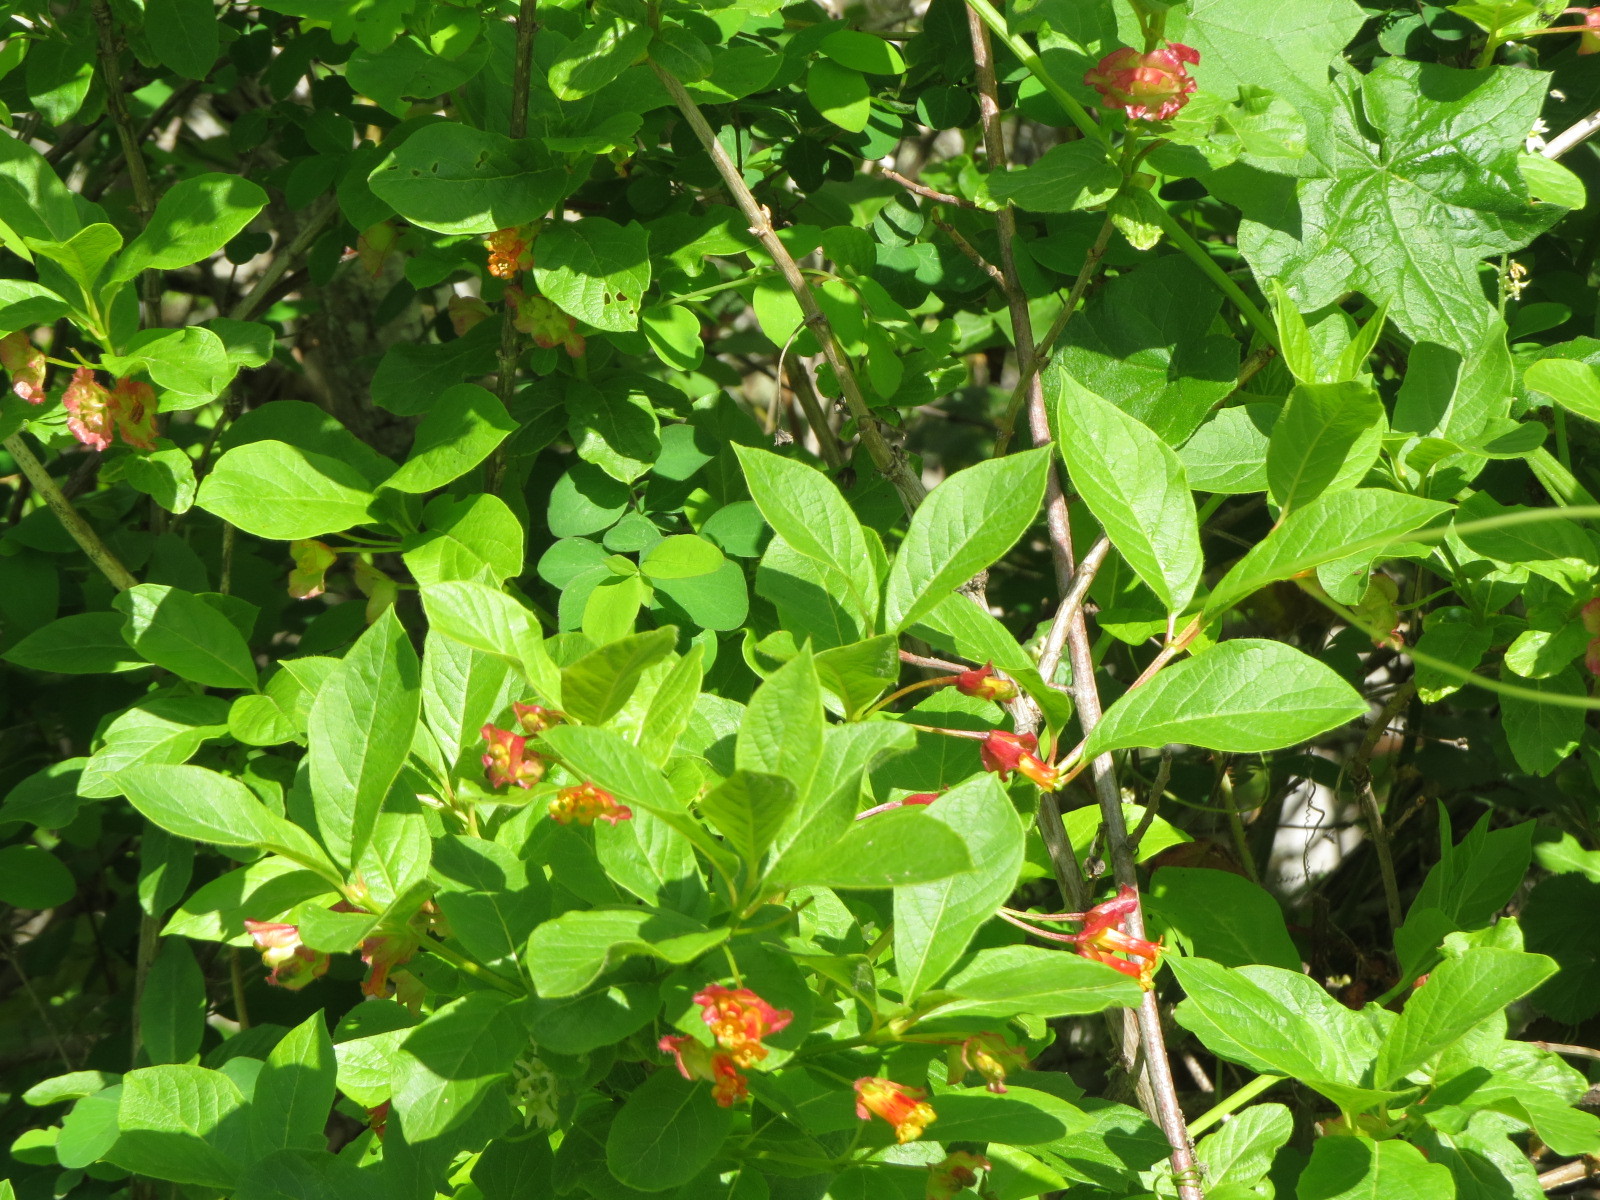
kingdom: Plantae
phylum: Tracheophyta
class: Magnoliopsida
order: Dipsacales
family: Caprifoliaceae
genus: Lonicera
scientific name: Lonicera involucrata
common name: Californian honeysuckle
